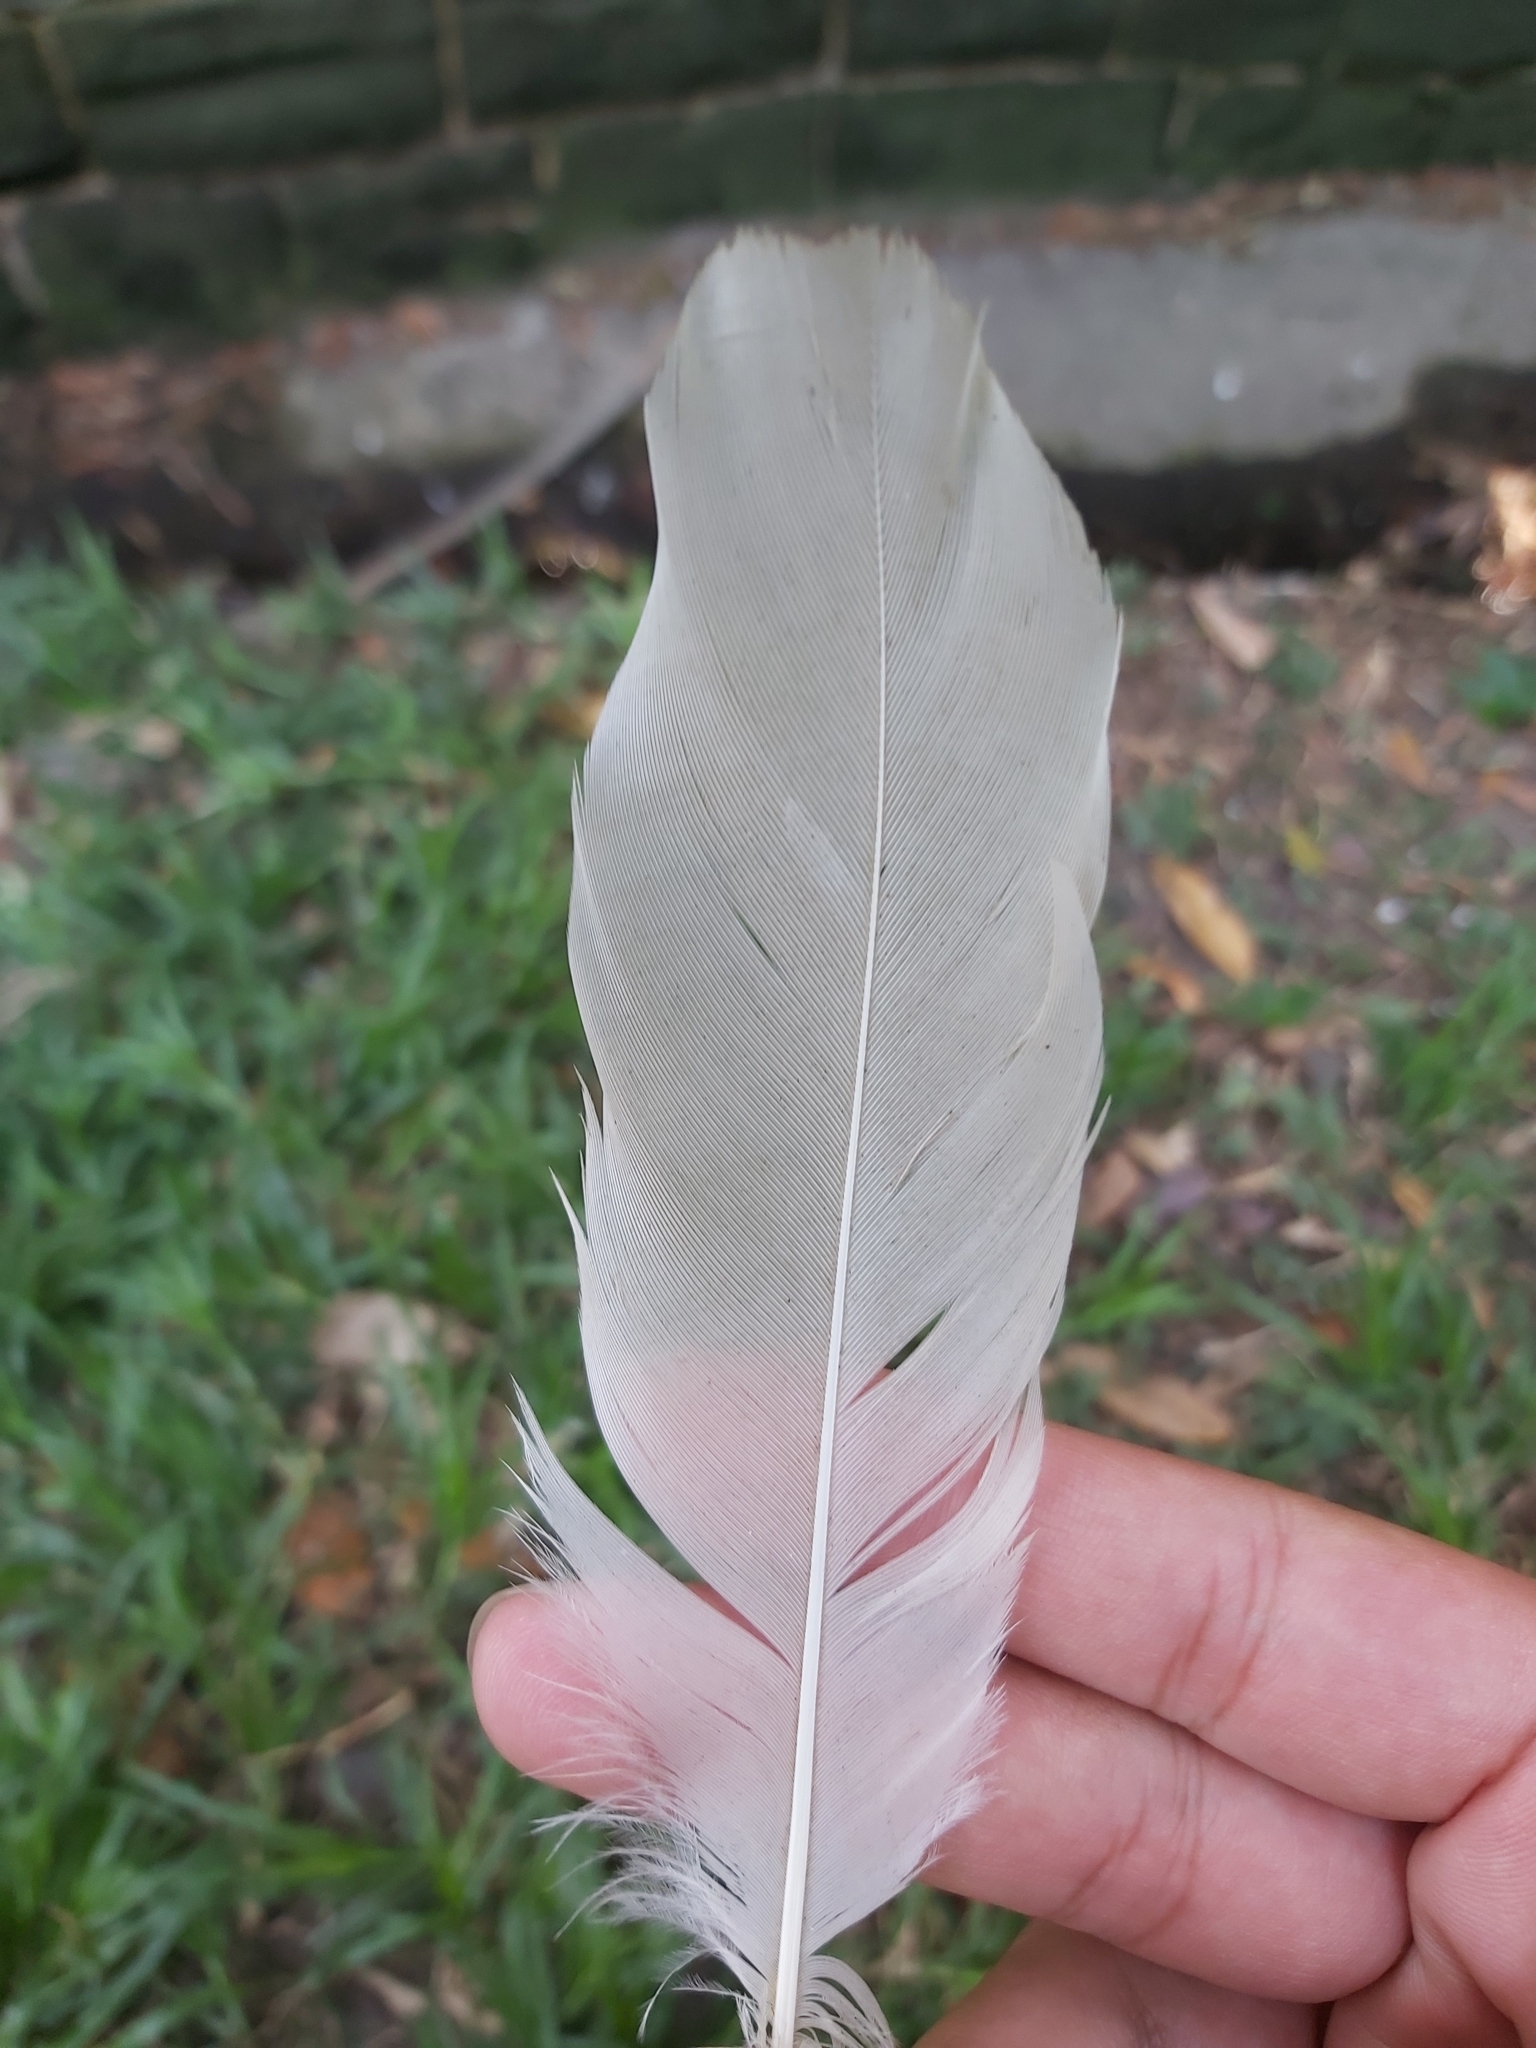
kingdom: Animalia
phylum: Chordata
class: Aves
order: Pelecaniformes
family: Threskiornithidae
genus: Threskiornis
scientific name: Threskiornis molucca
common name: Australian white ibis
